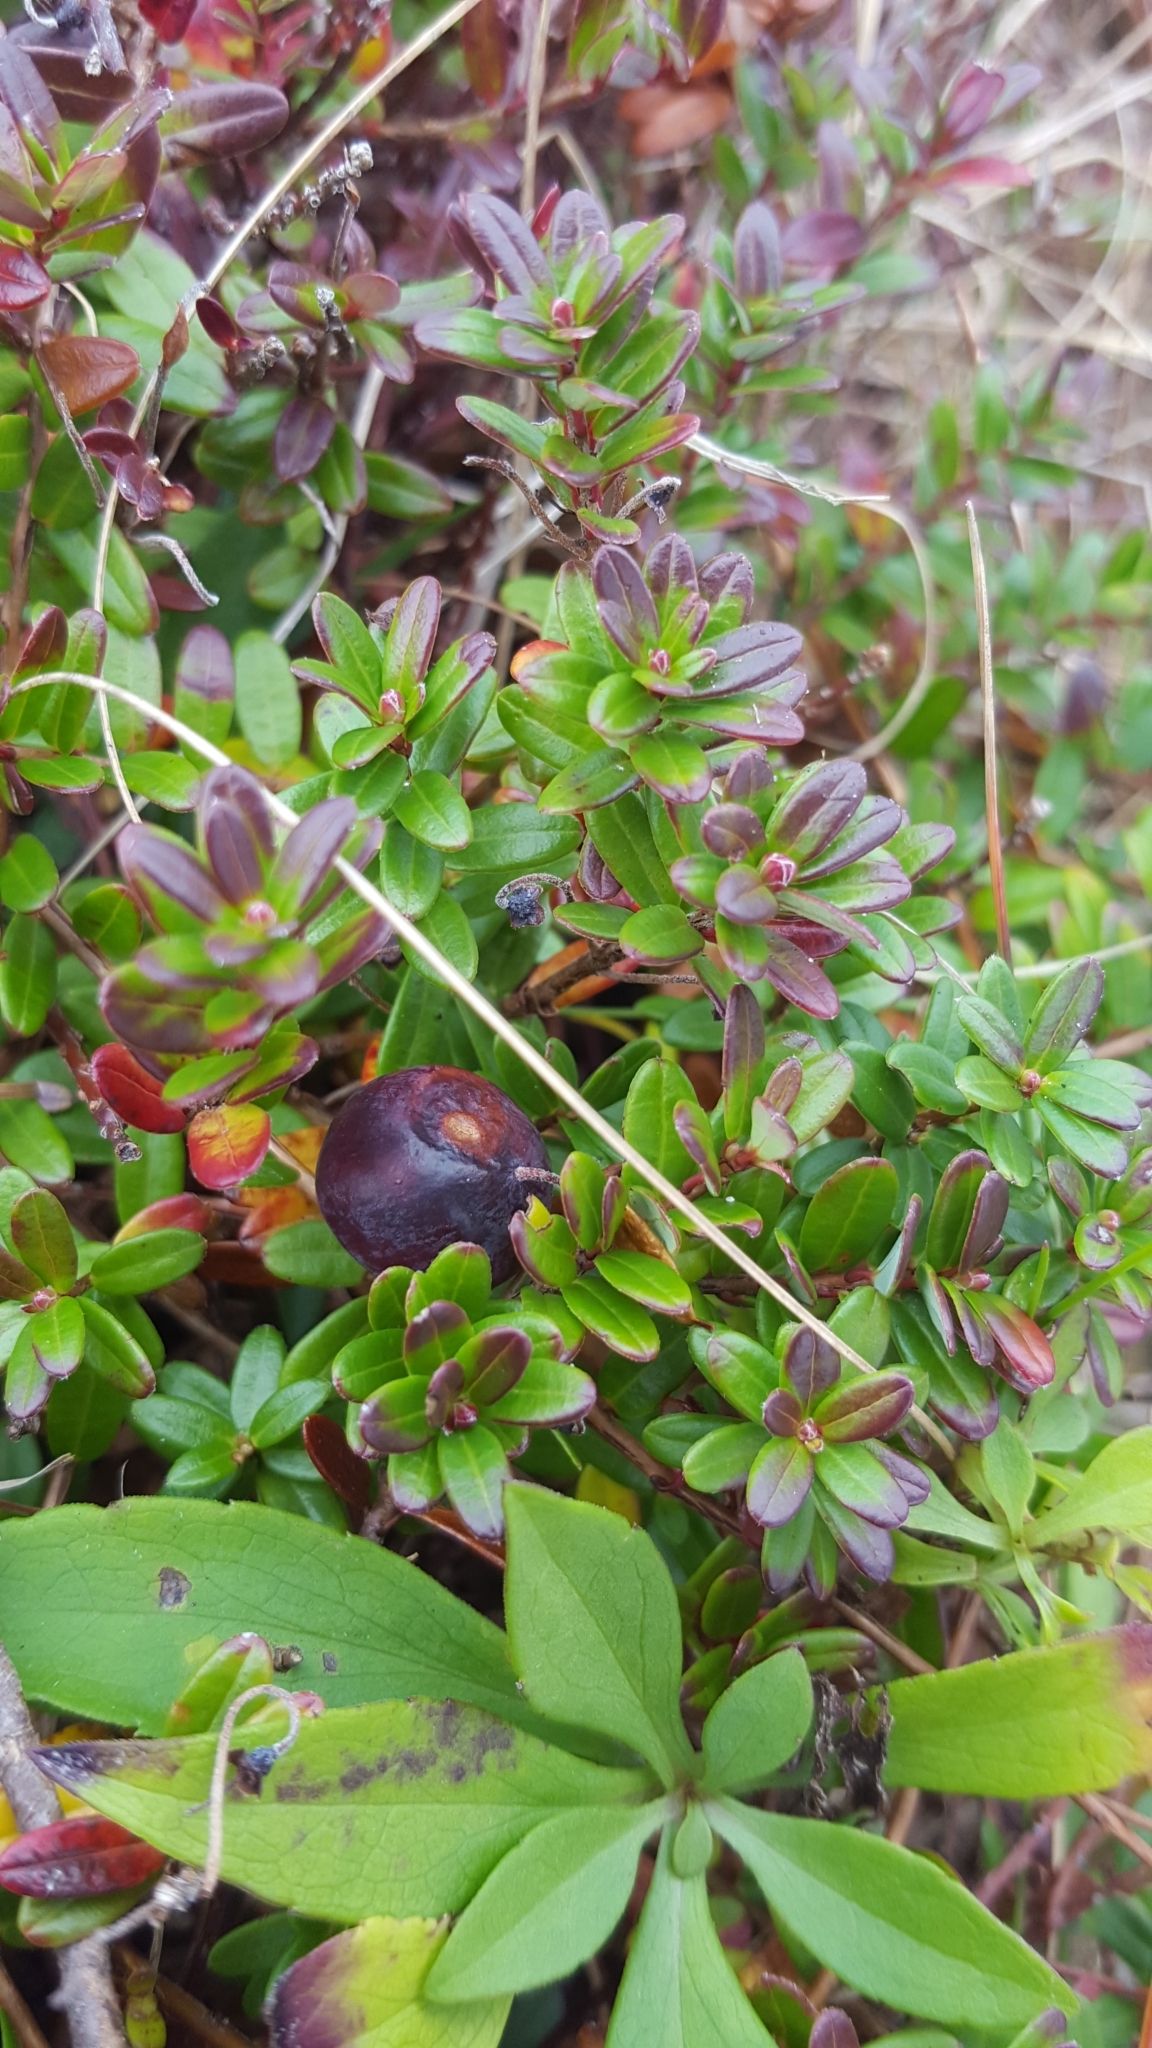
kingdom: Plantae
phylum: Tracheophyta
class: Magnoliopsida
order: Ericales
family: Ericaceae
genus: Vaccinium
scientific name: Vaccinium macrocarpon
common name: American cranberry
